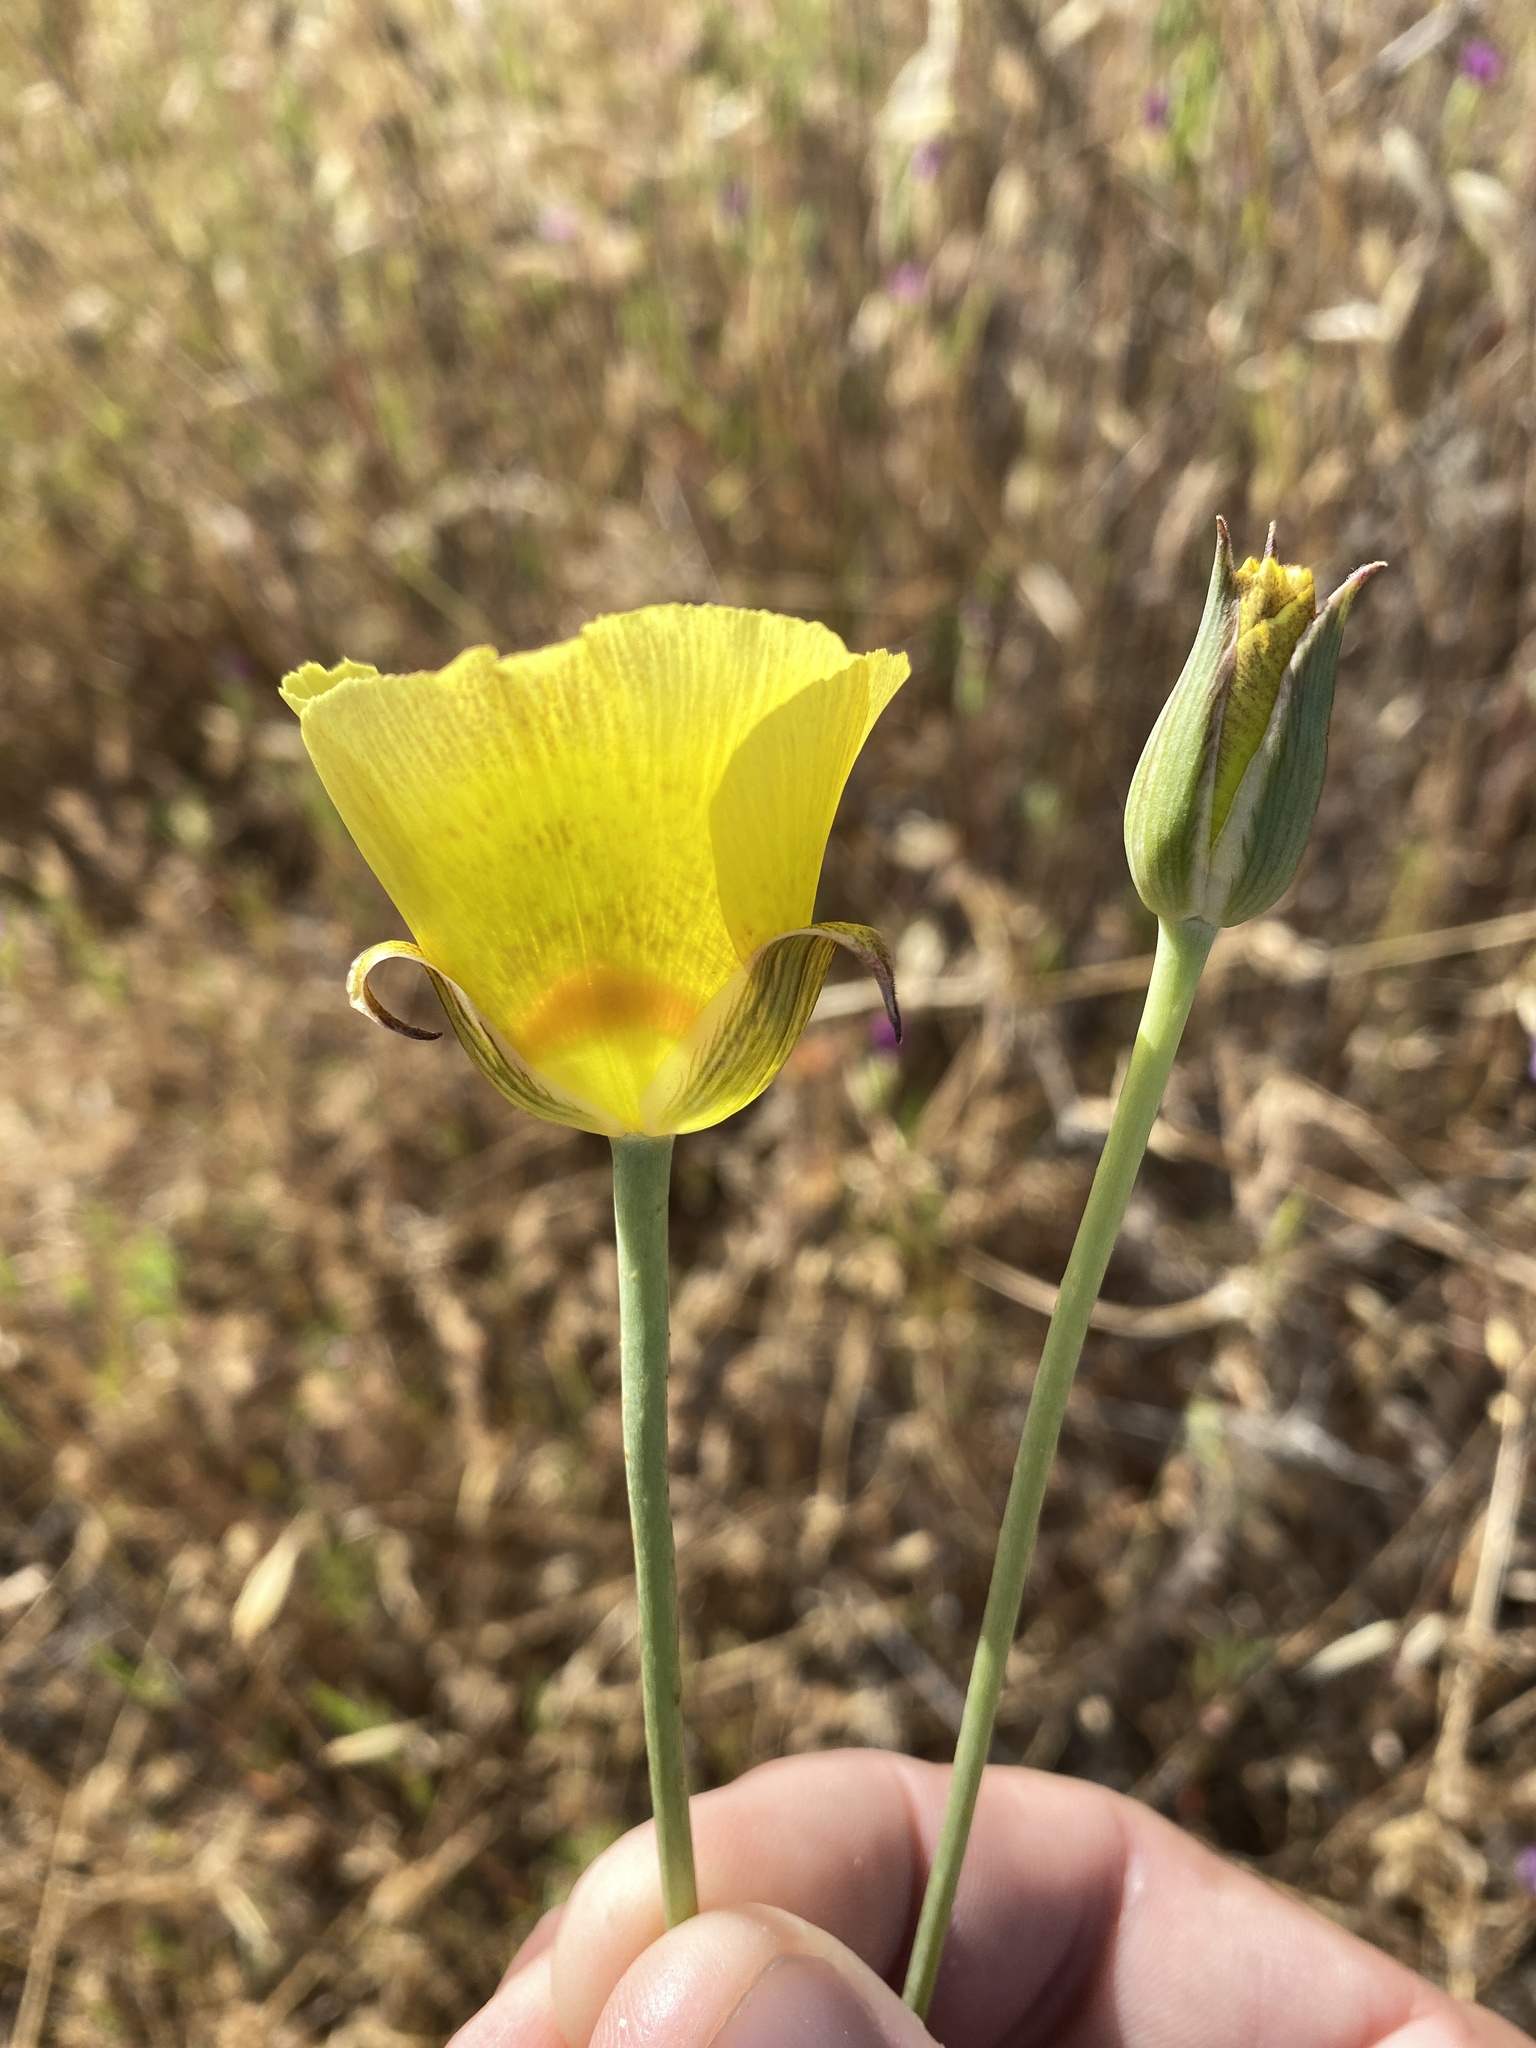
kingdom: Plantae
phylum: Tracheophyta
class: Liliopsida
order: Liliales
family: Liliaceae
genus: Calochortus
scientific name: Calochortus luteus
